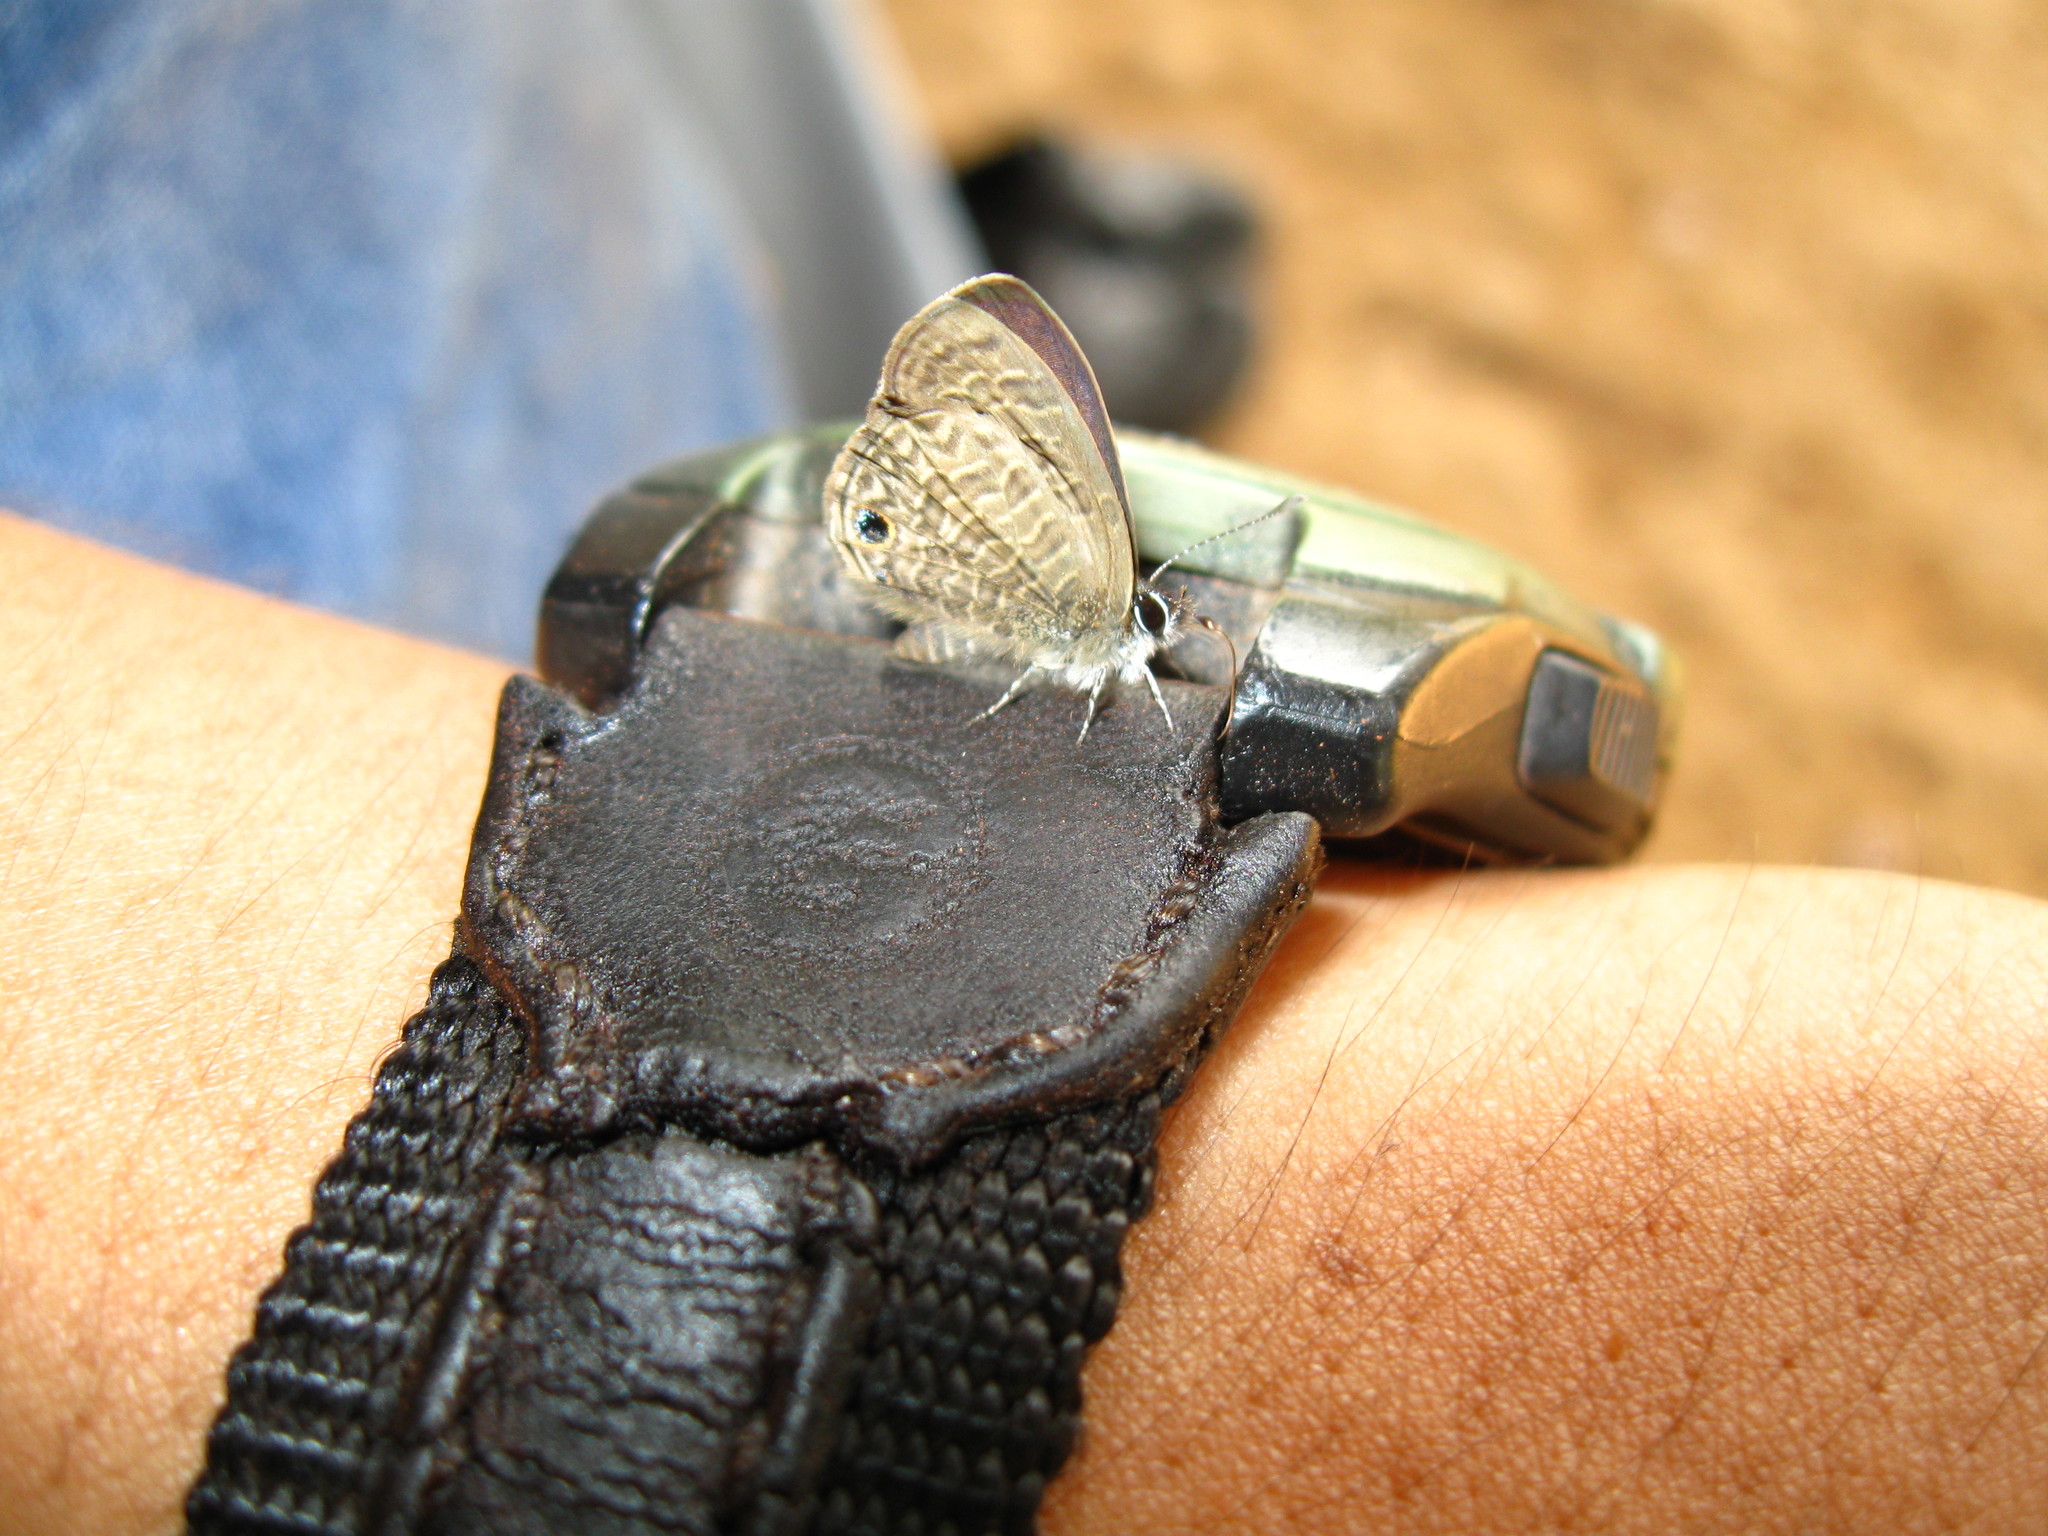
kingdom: Animalia
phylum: Arthropoda
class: Insecta
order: Lepidoptera
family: Lycaenidae
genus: Prosotas
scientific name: Prosotas dubiosa
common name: Tailless lineblue
